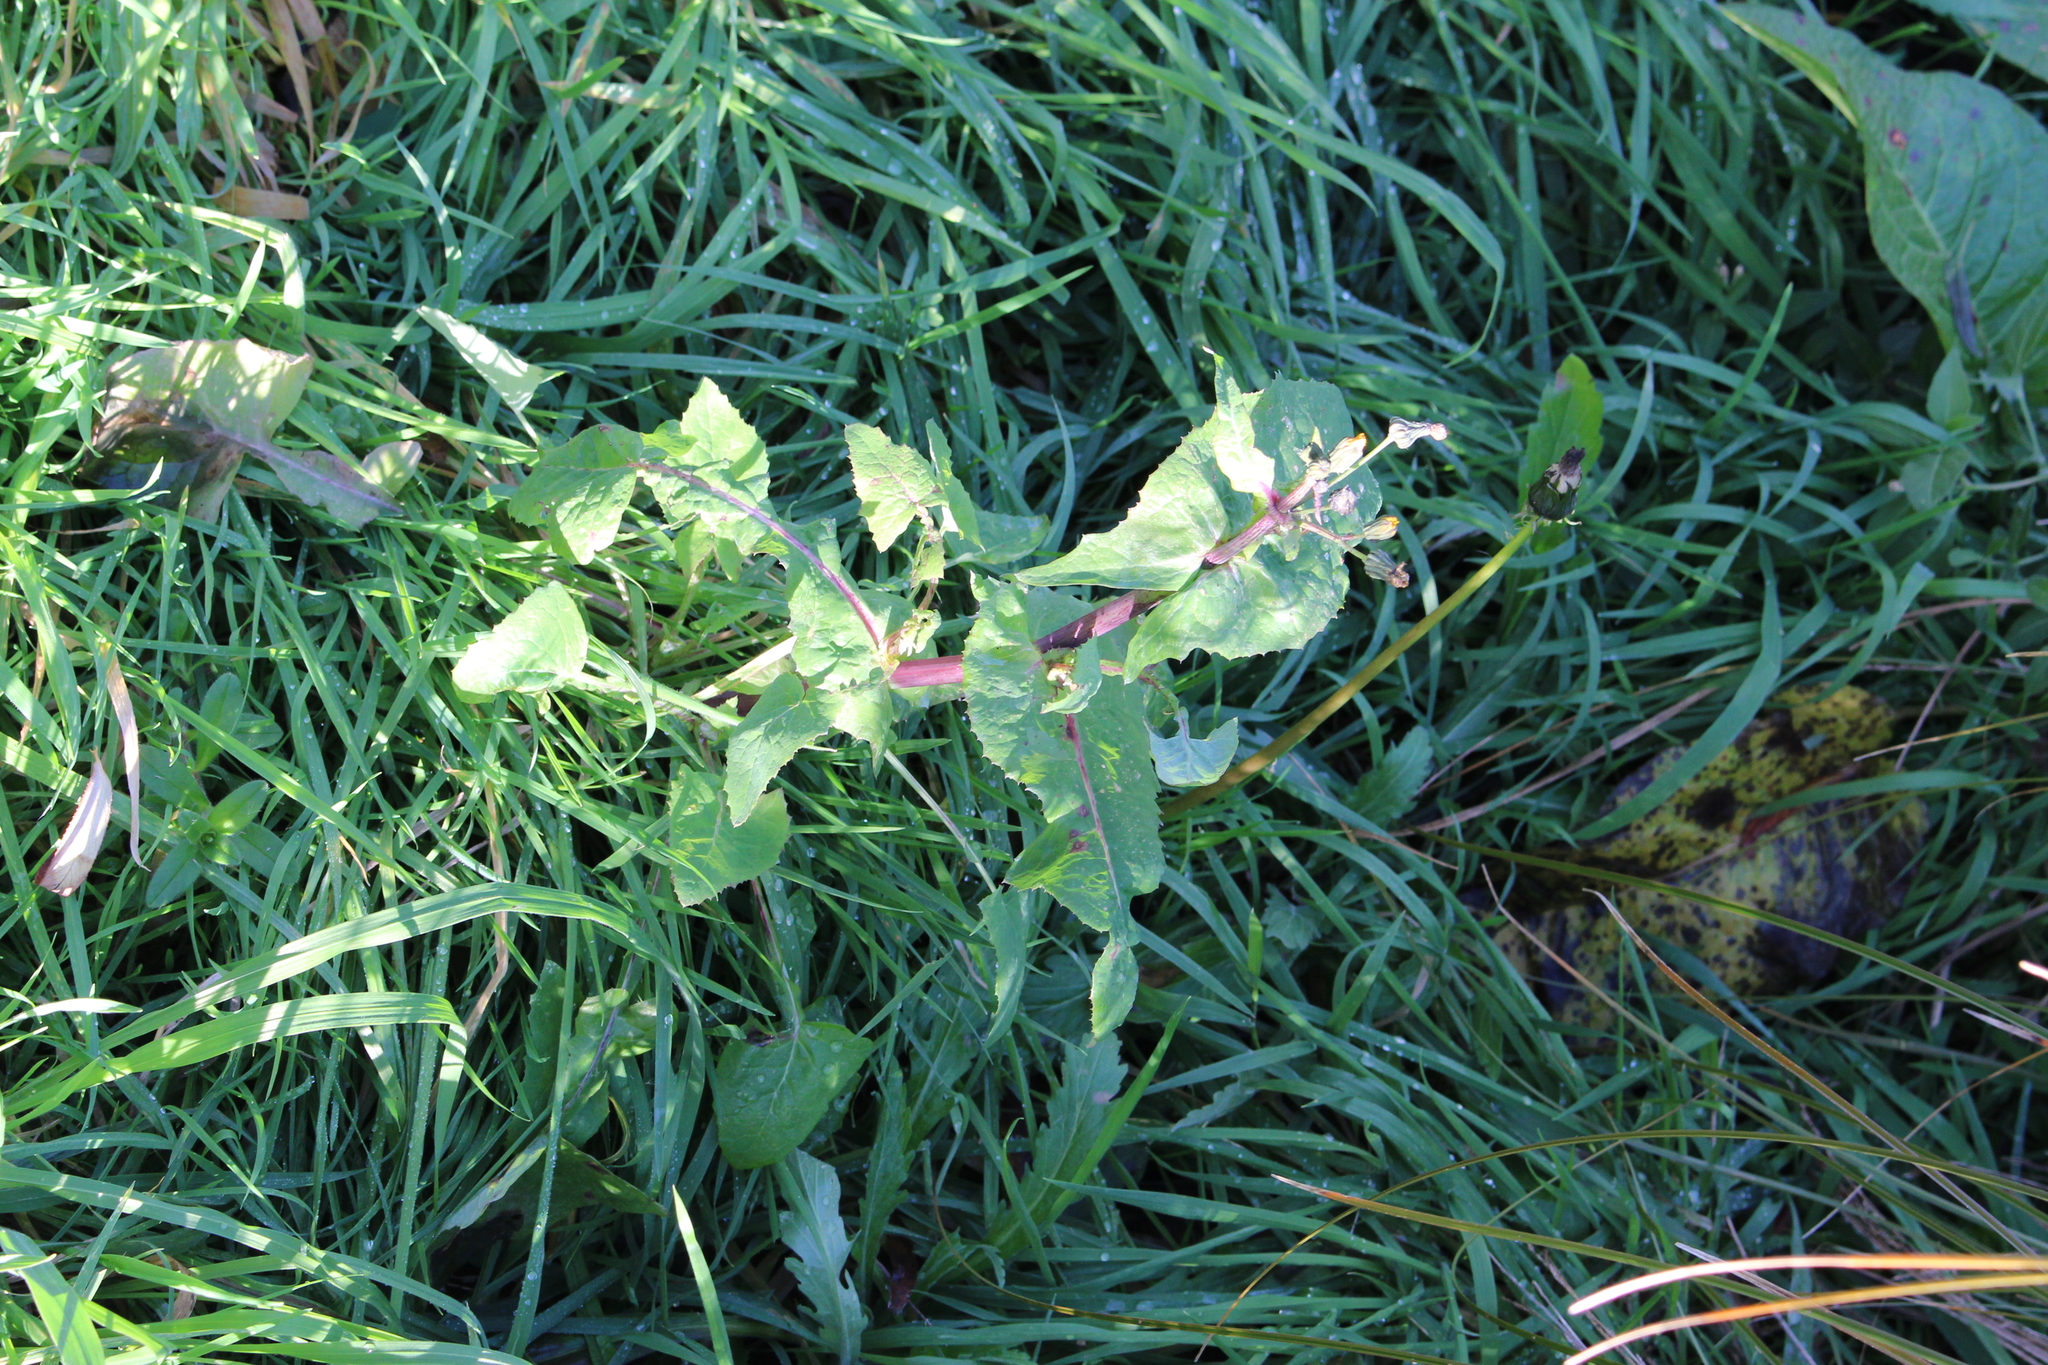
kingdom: Plantae
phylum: Tracheophyta
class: Magnoliopsida
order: Asterales
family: Asteraceae
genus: Sonchus
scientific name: Sonchus oleraceus
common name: Common sowthistle
